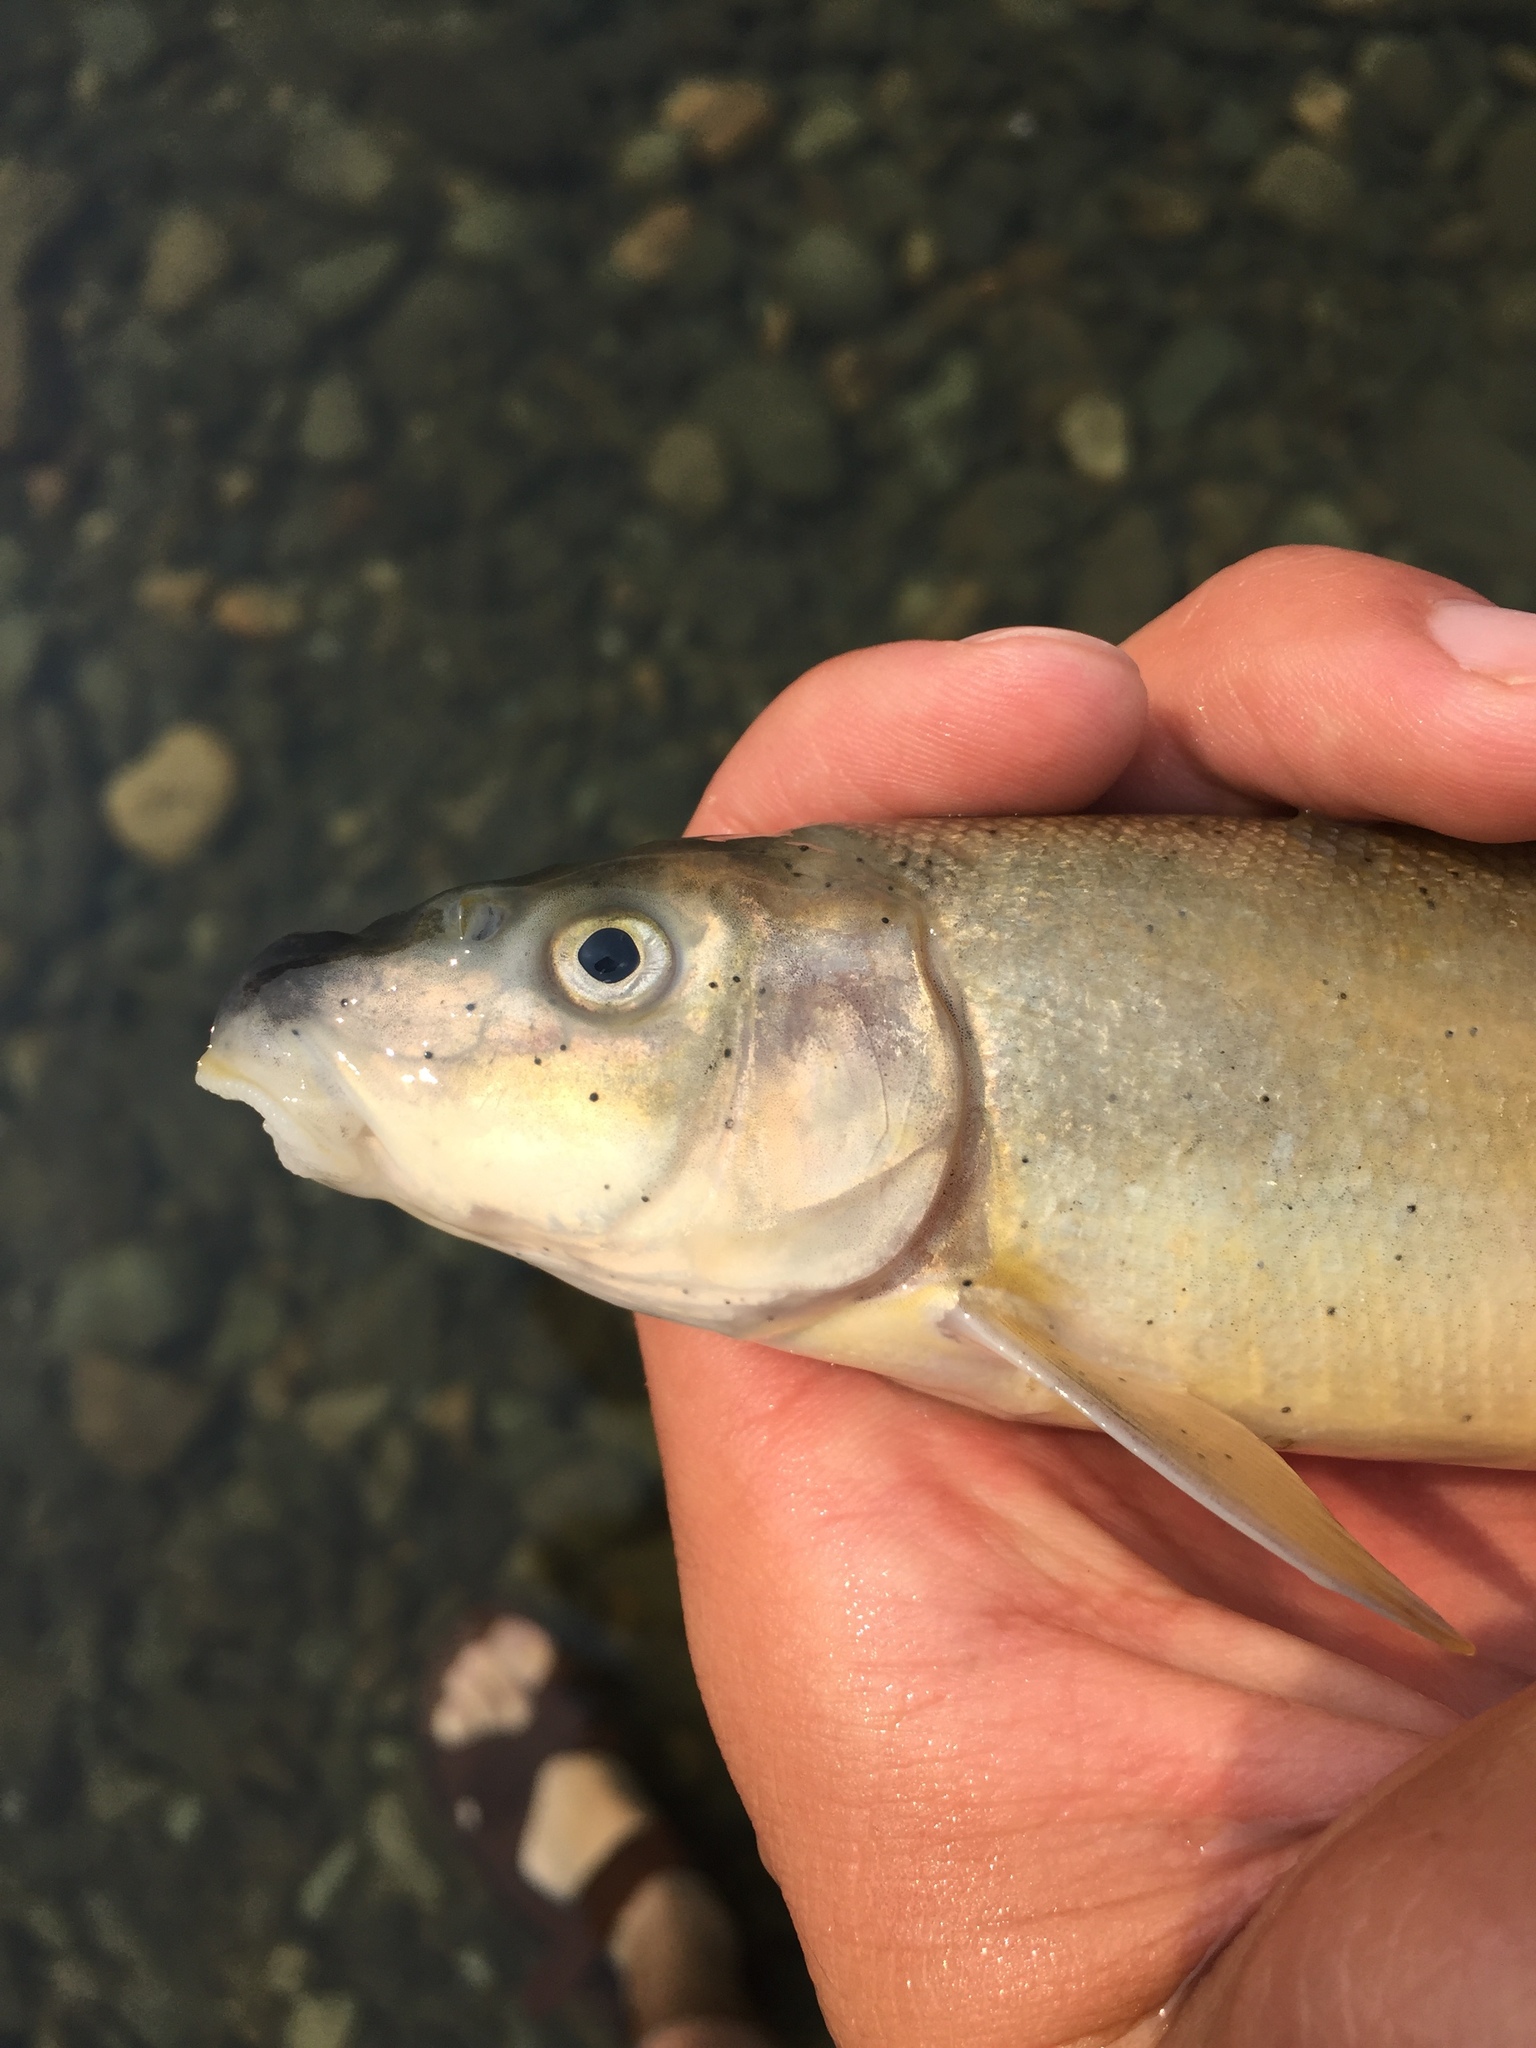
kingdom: Animalia
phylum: Chordata
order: Cypriniformes
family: Catostomidae
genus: Catostomus
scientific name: Catostomus macrocheilus
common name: Largescale sucker
